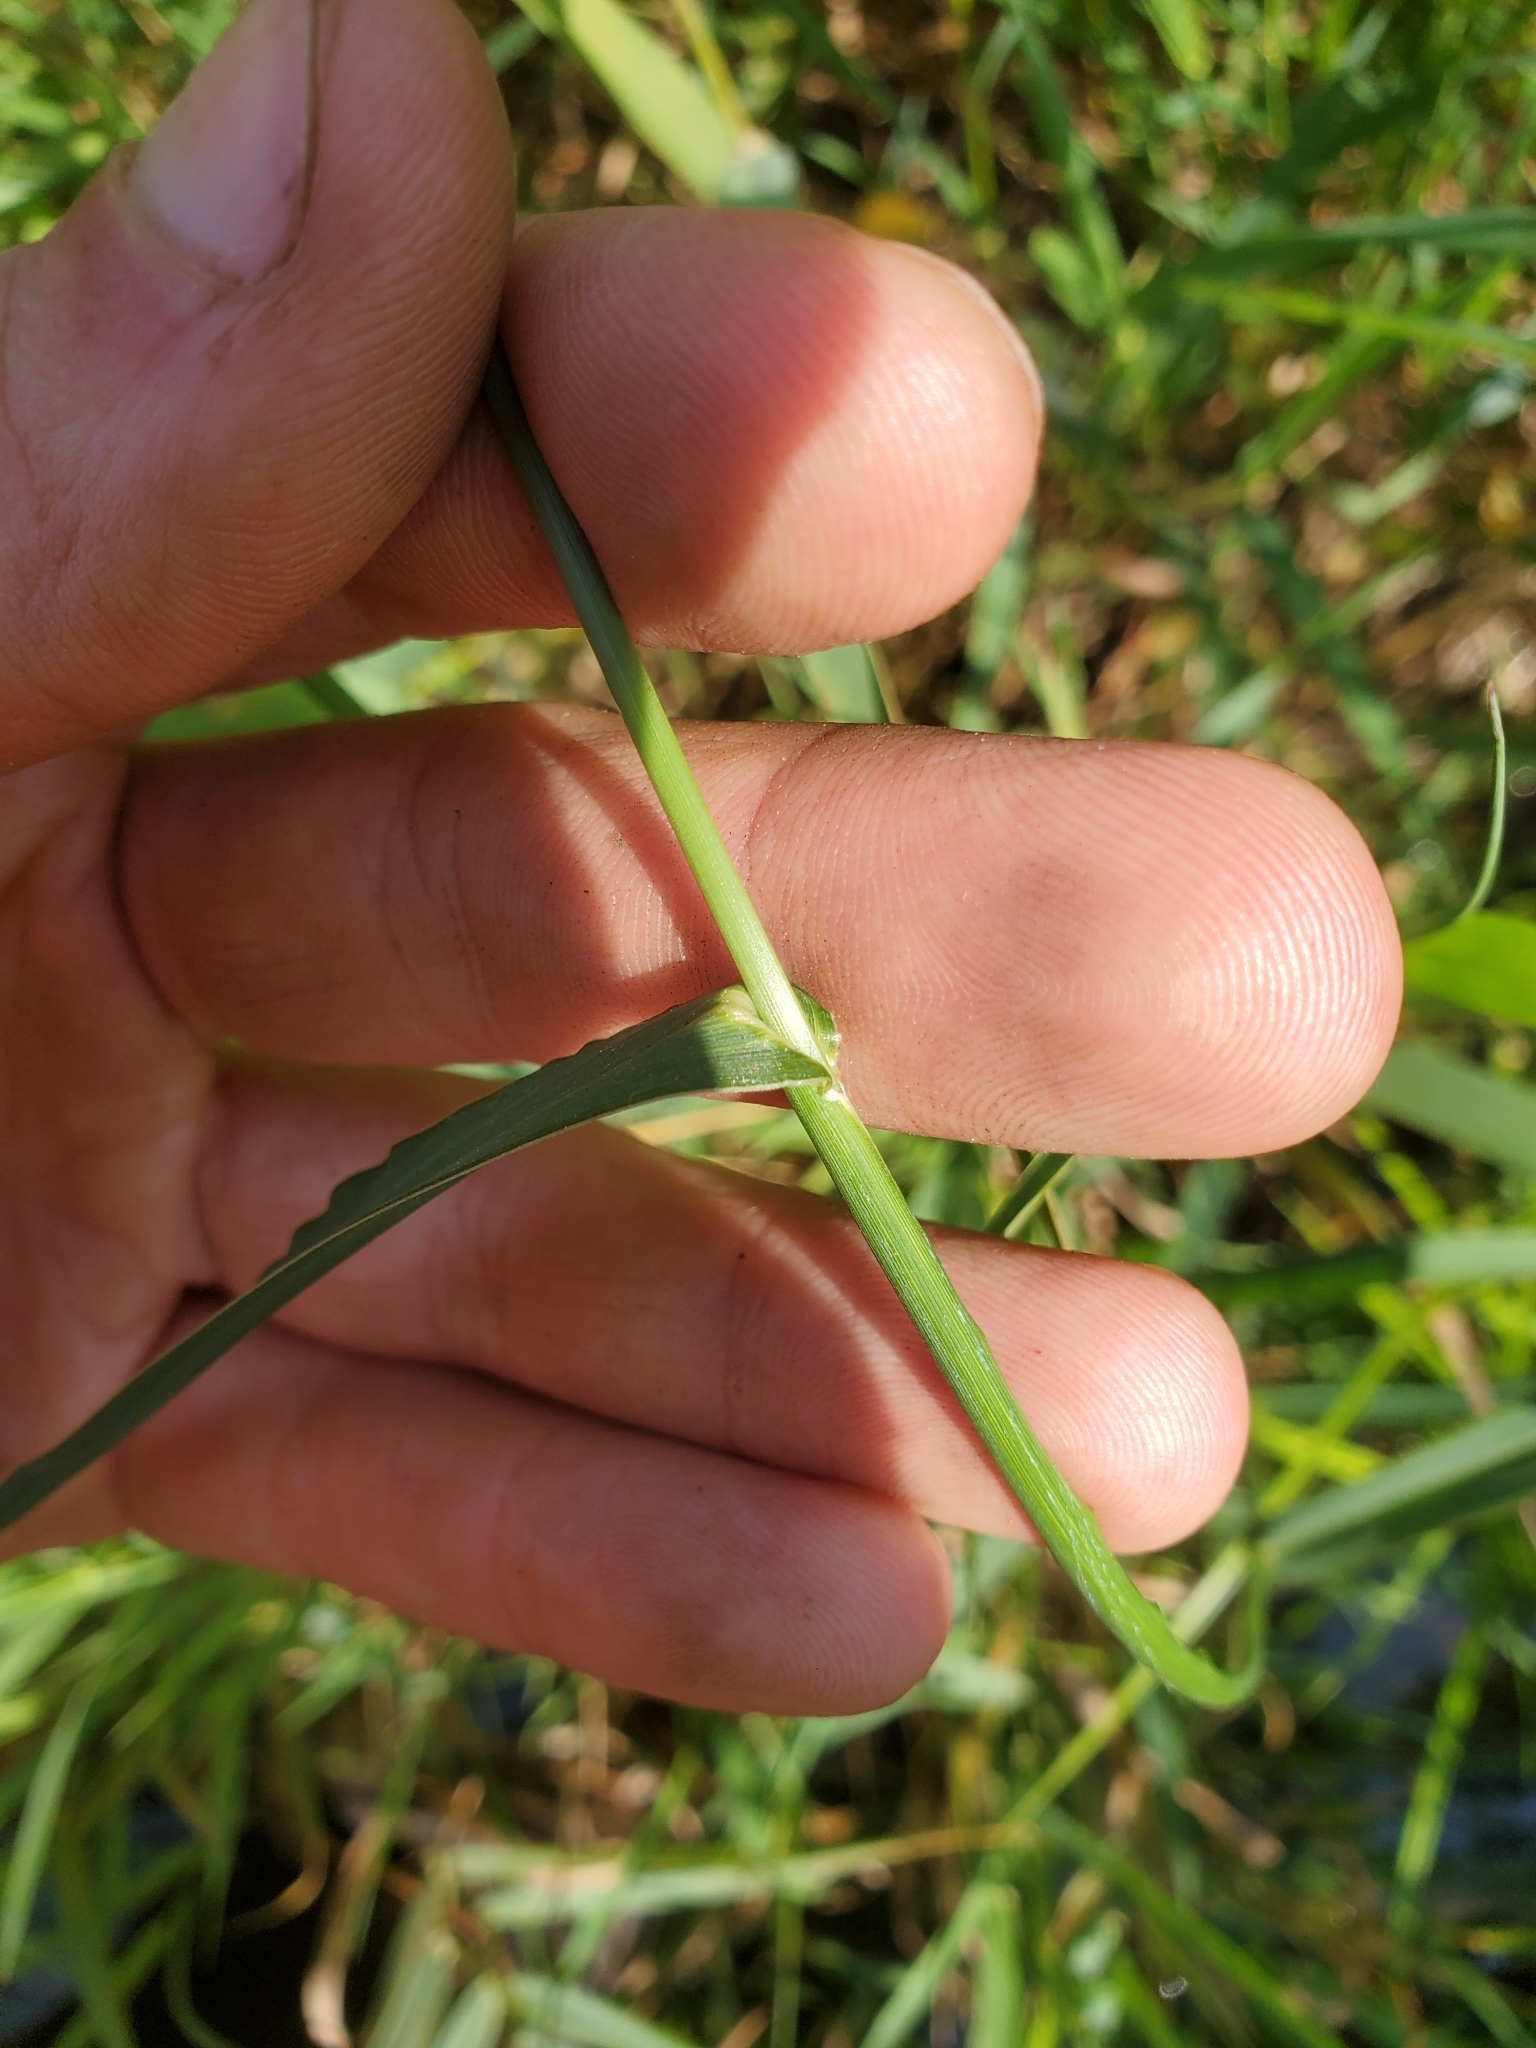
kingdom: Plantae
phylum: Tracheophyta
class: Liliopsida
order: Poales
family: Poaceae
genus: Echinochloa
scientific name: Echinochloa crus-galli
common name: Cockspur
